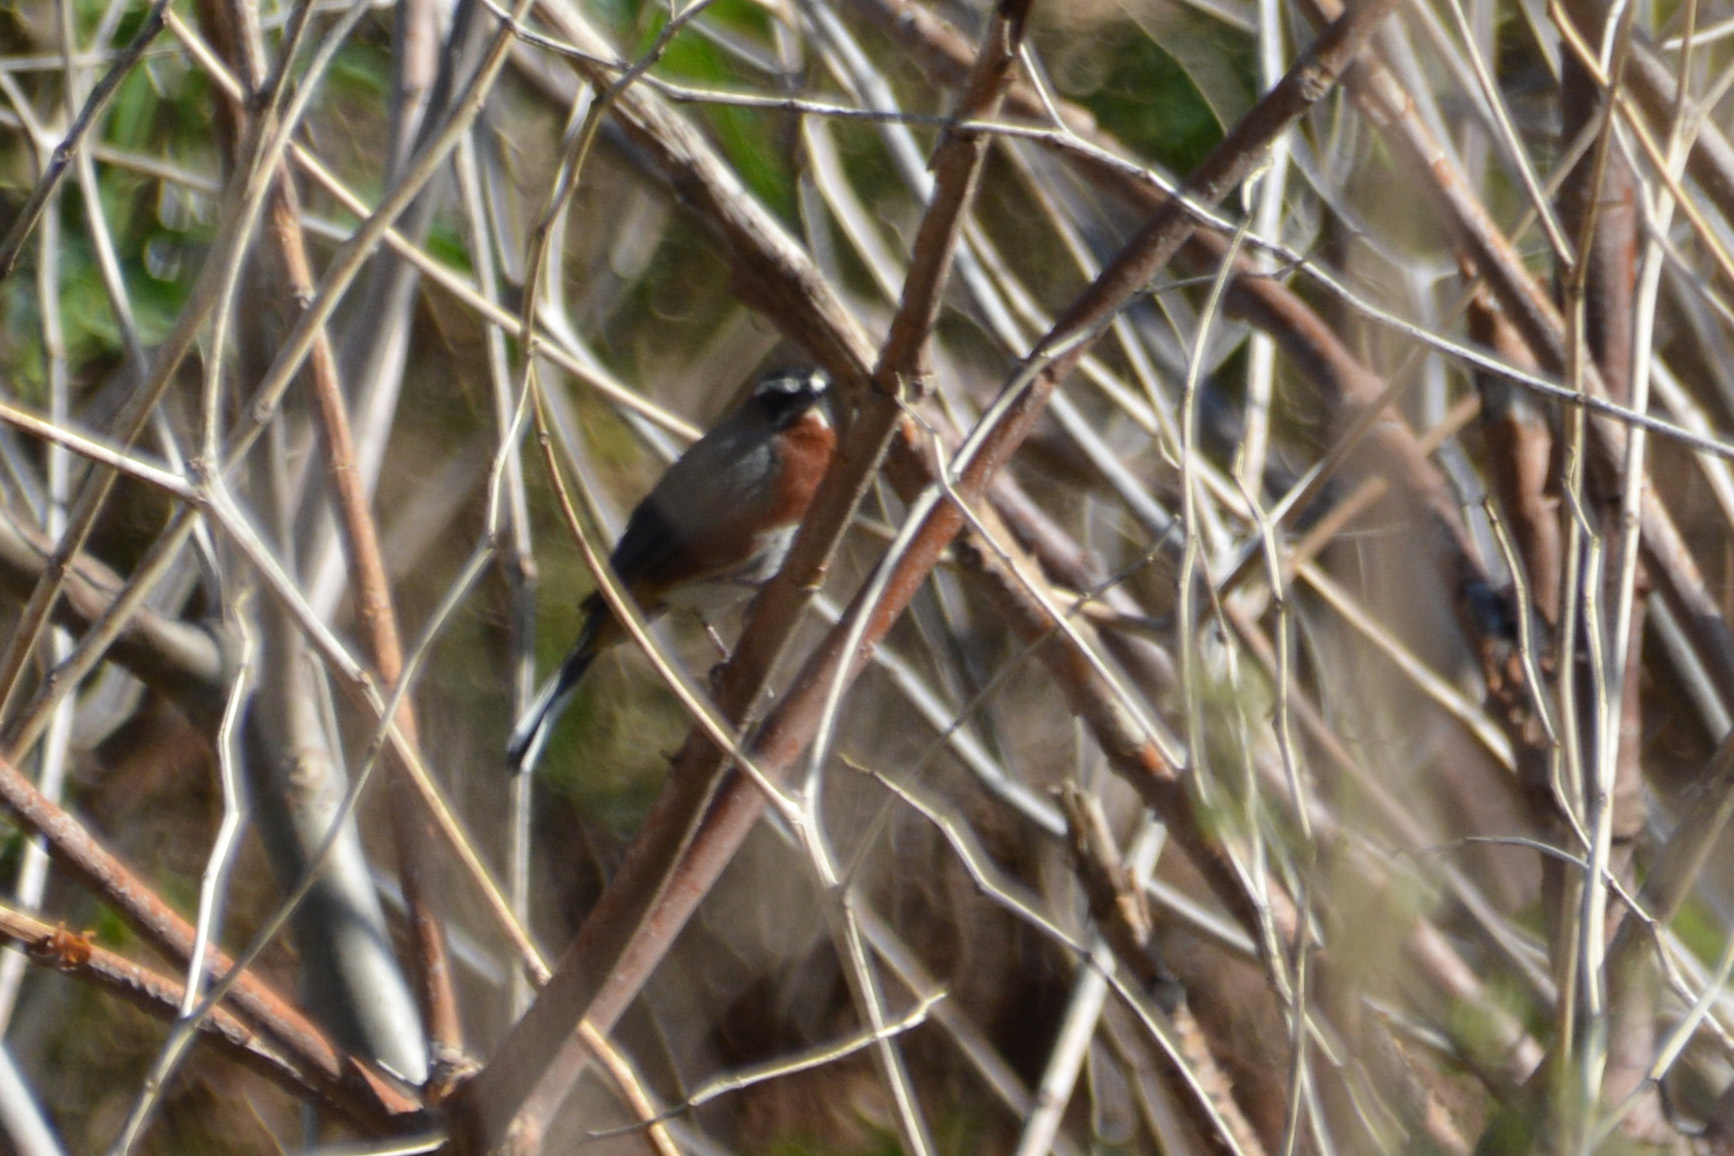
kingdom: Animalia
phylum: Chordata
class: Aves
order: Passeriformes
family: Thraupidae
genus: Poospiza
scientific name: Poospiza whitii
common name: Black-and-chestnut warbling finch
